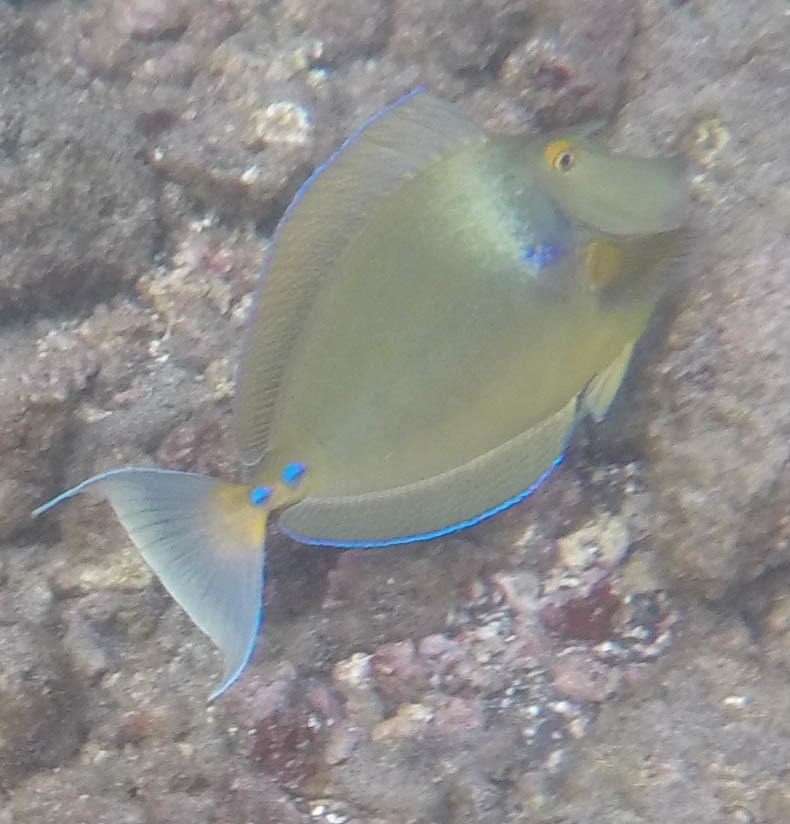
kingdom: Animalia
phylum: Chordata
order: Perciformes
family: Acanthuridae
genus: Naso
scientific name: Naso unicornis
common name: Bluespine unicornfish
